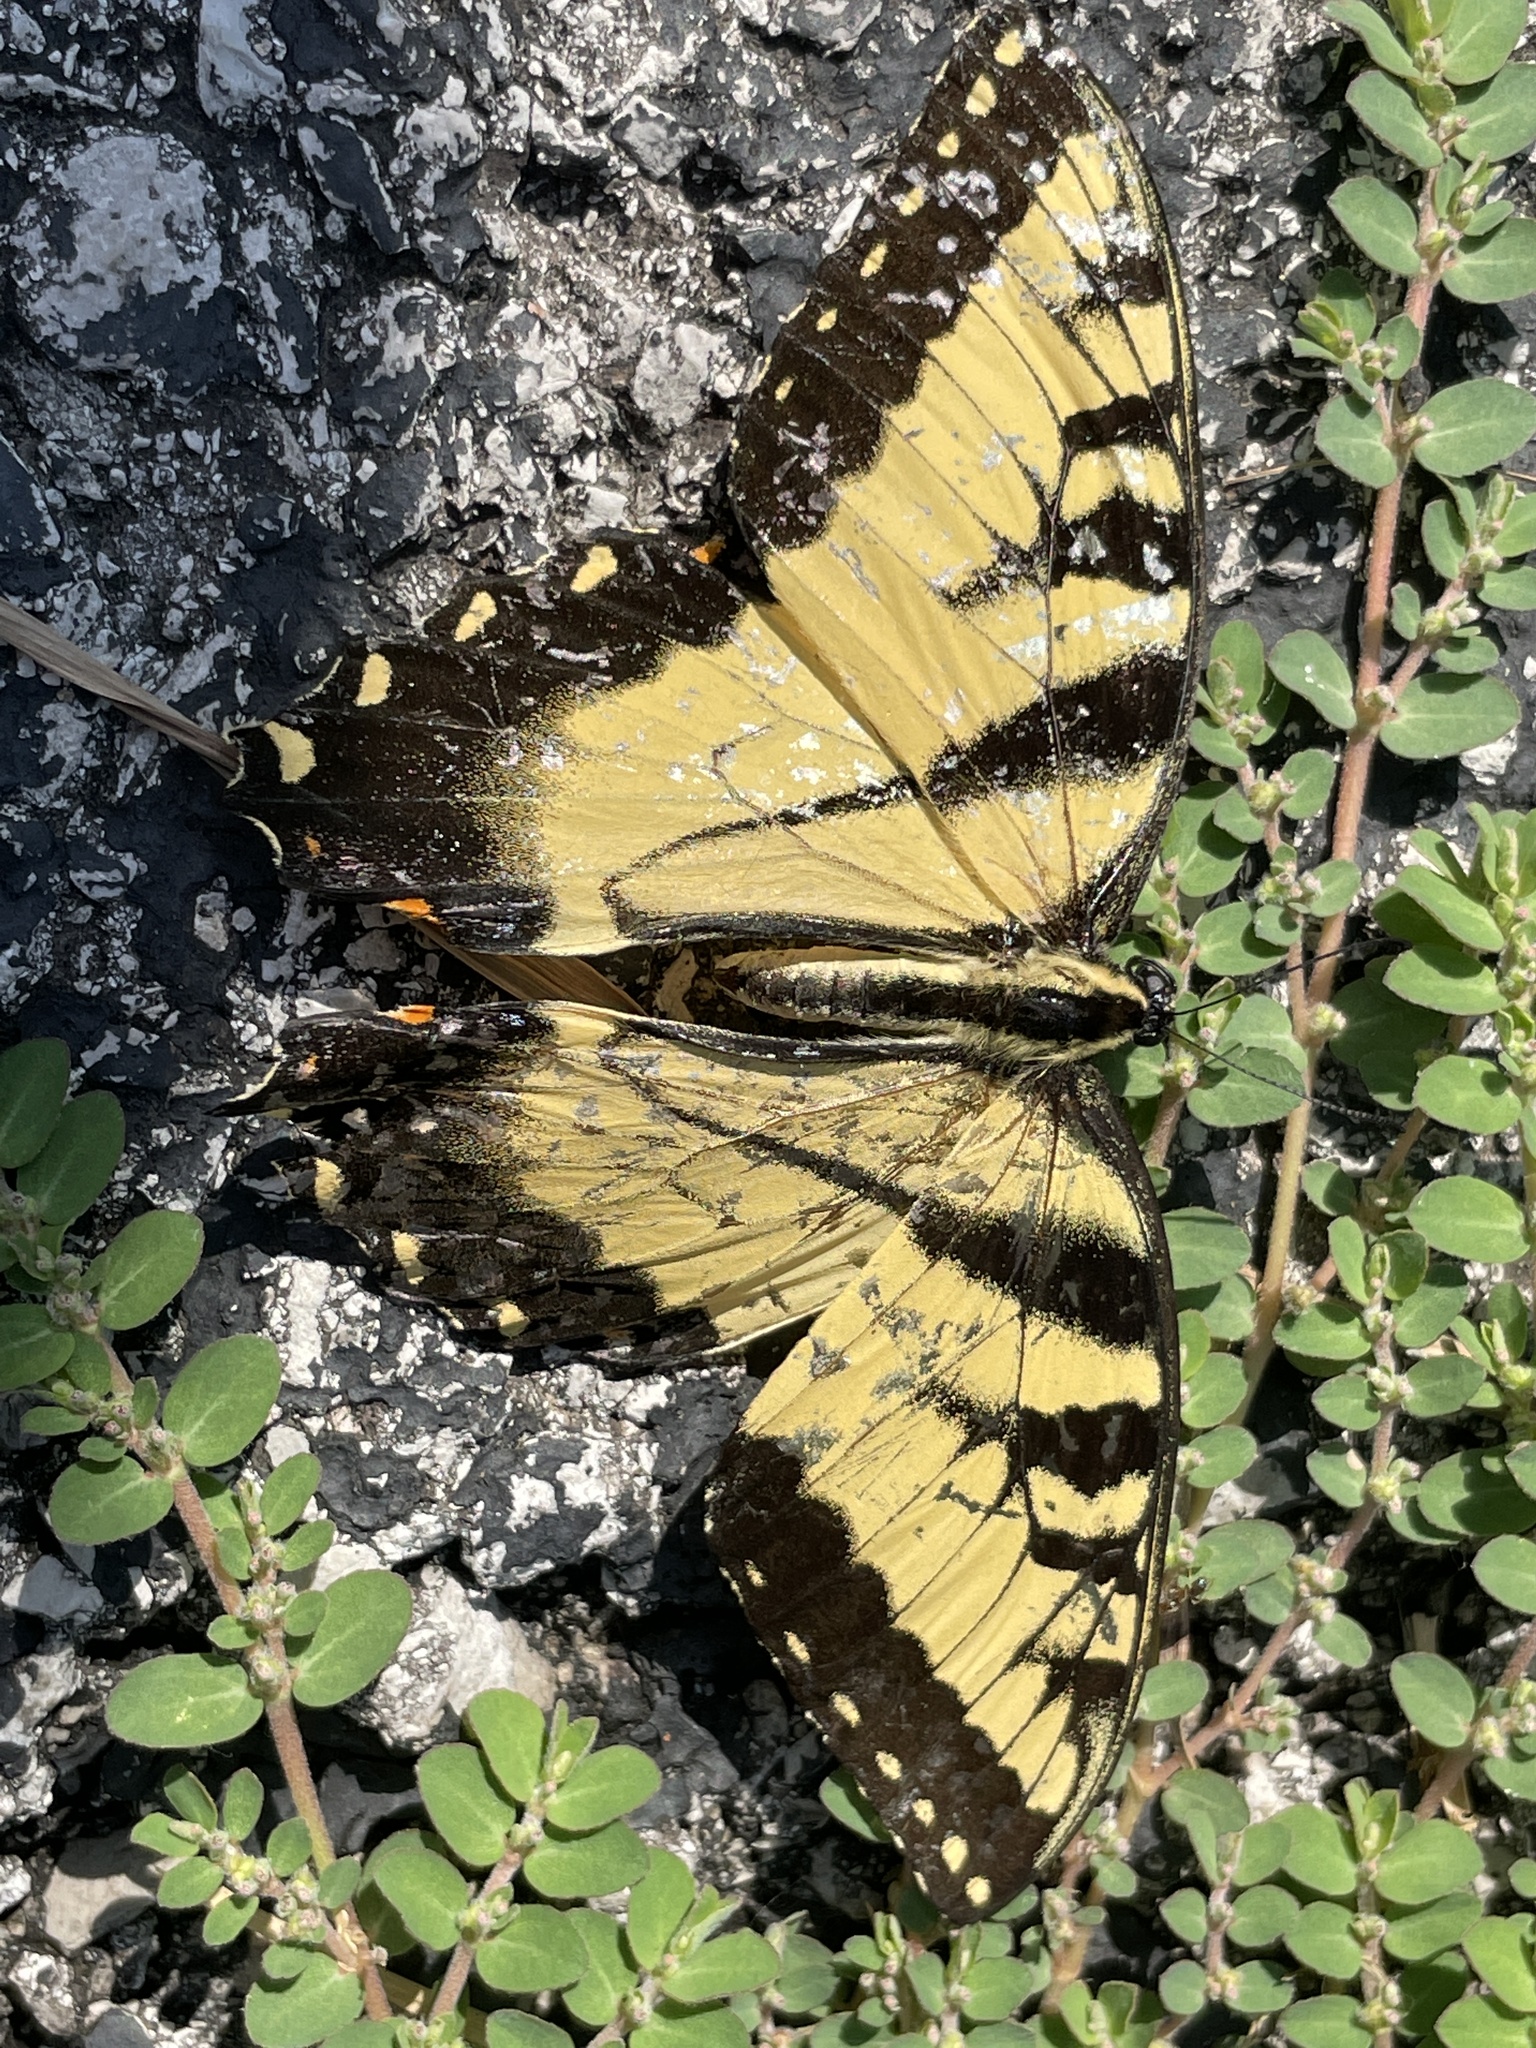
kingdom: Animalia
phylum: Arthropoda
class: Insecta
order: Lepidoptera
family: Papilionidae
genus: Papilio
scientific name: Papilio glaucus
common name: Tiger swallowtail
